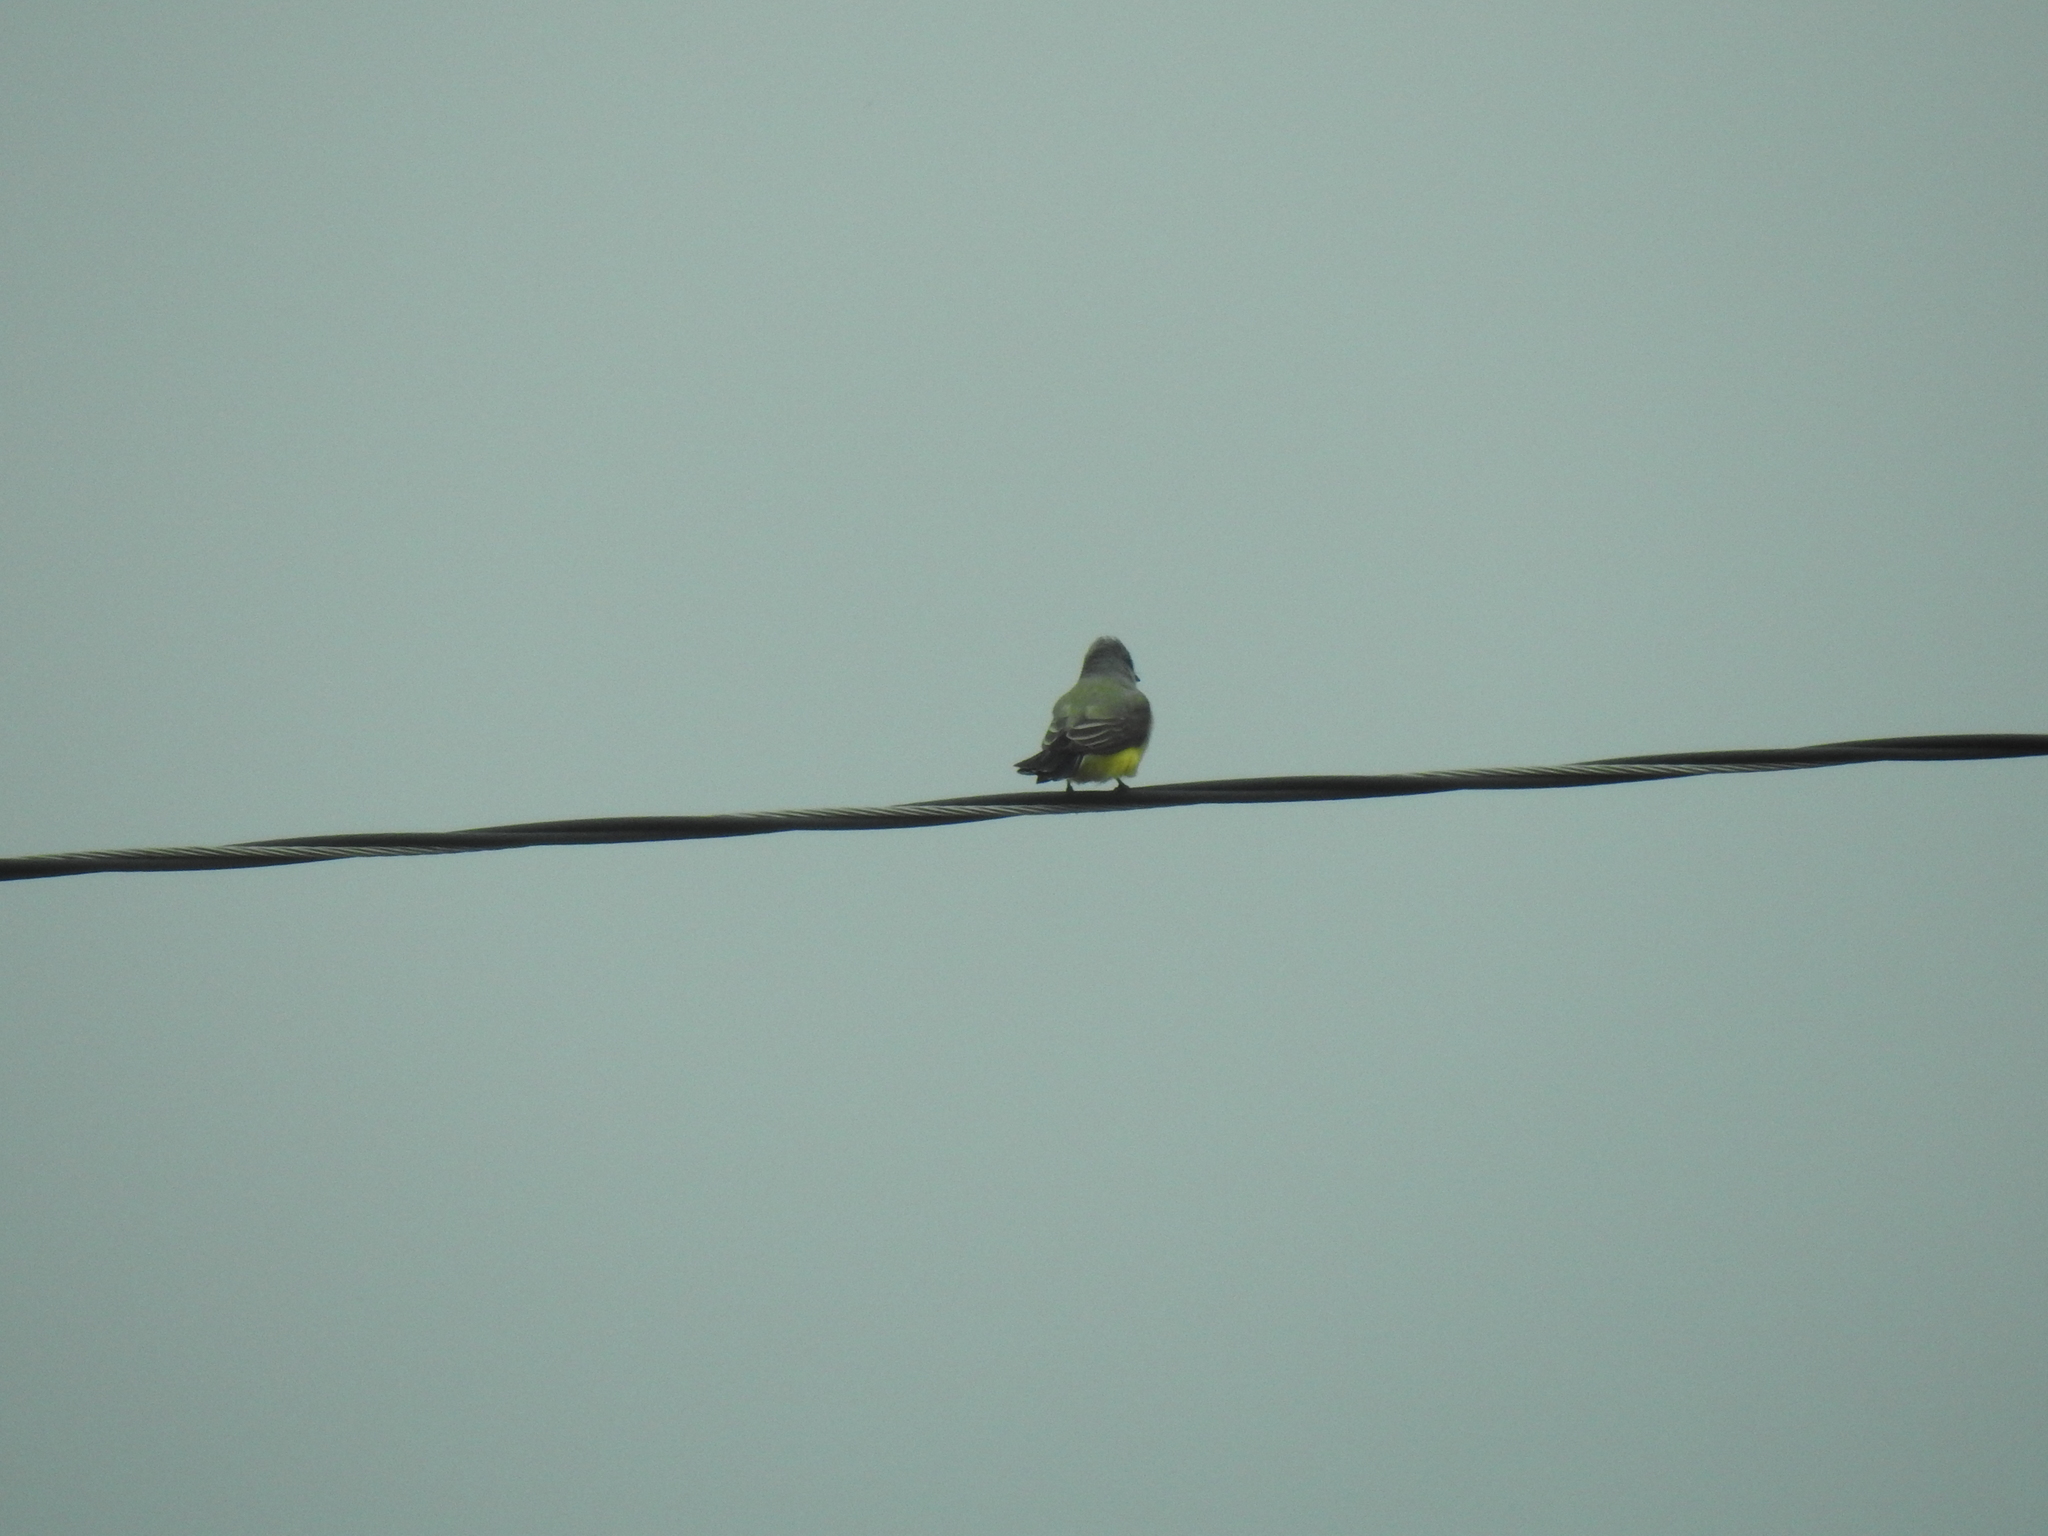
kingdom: Animalia
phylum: Chordata
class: Aves
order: Passeriformes
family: Tyrannidae
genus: Tyrannus
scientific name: Tyrannus verticalis
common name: Western kingbird
